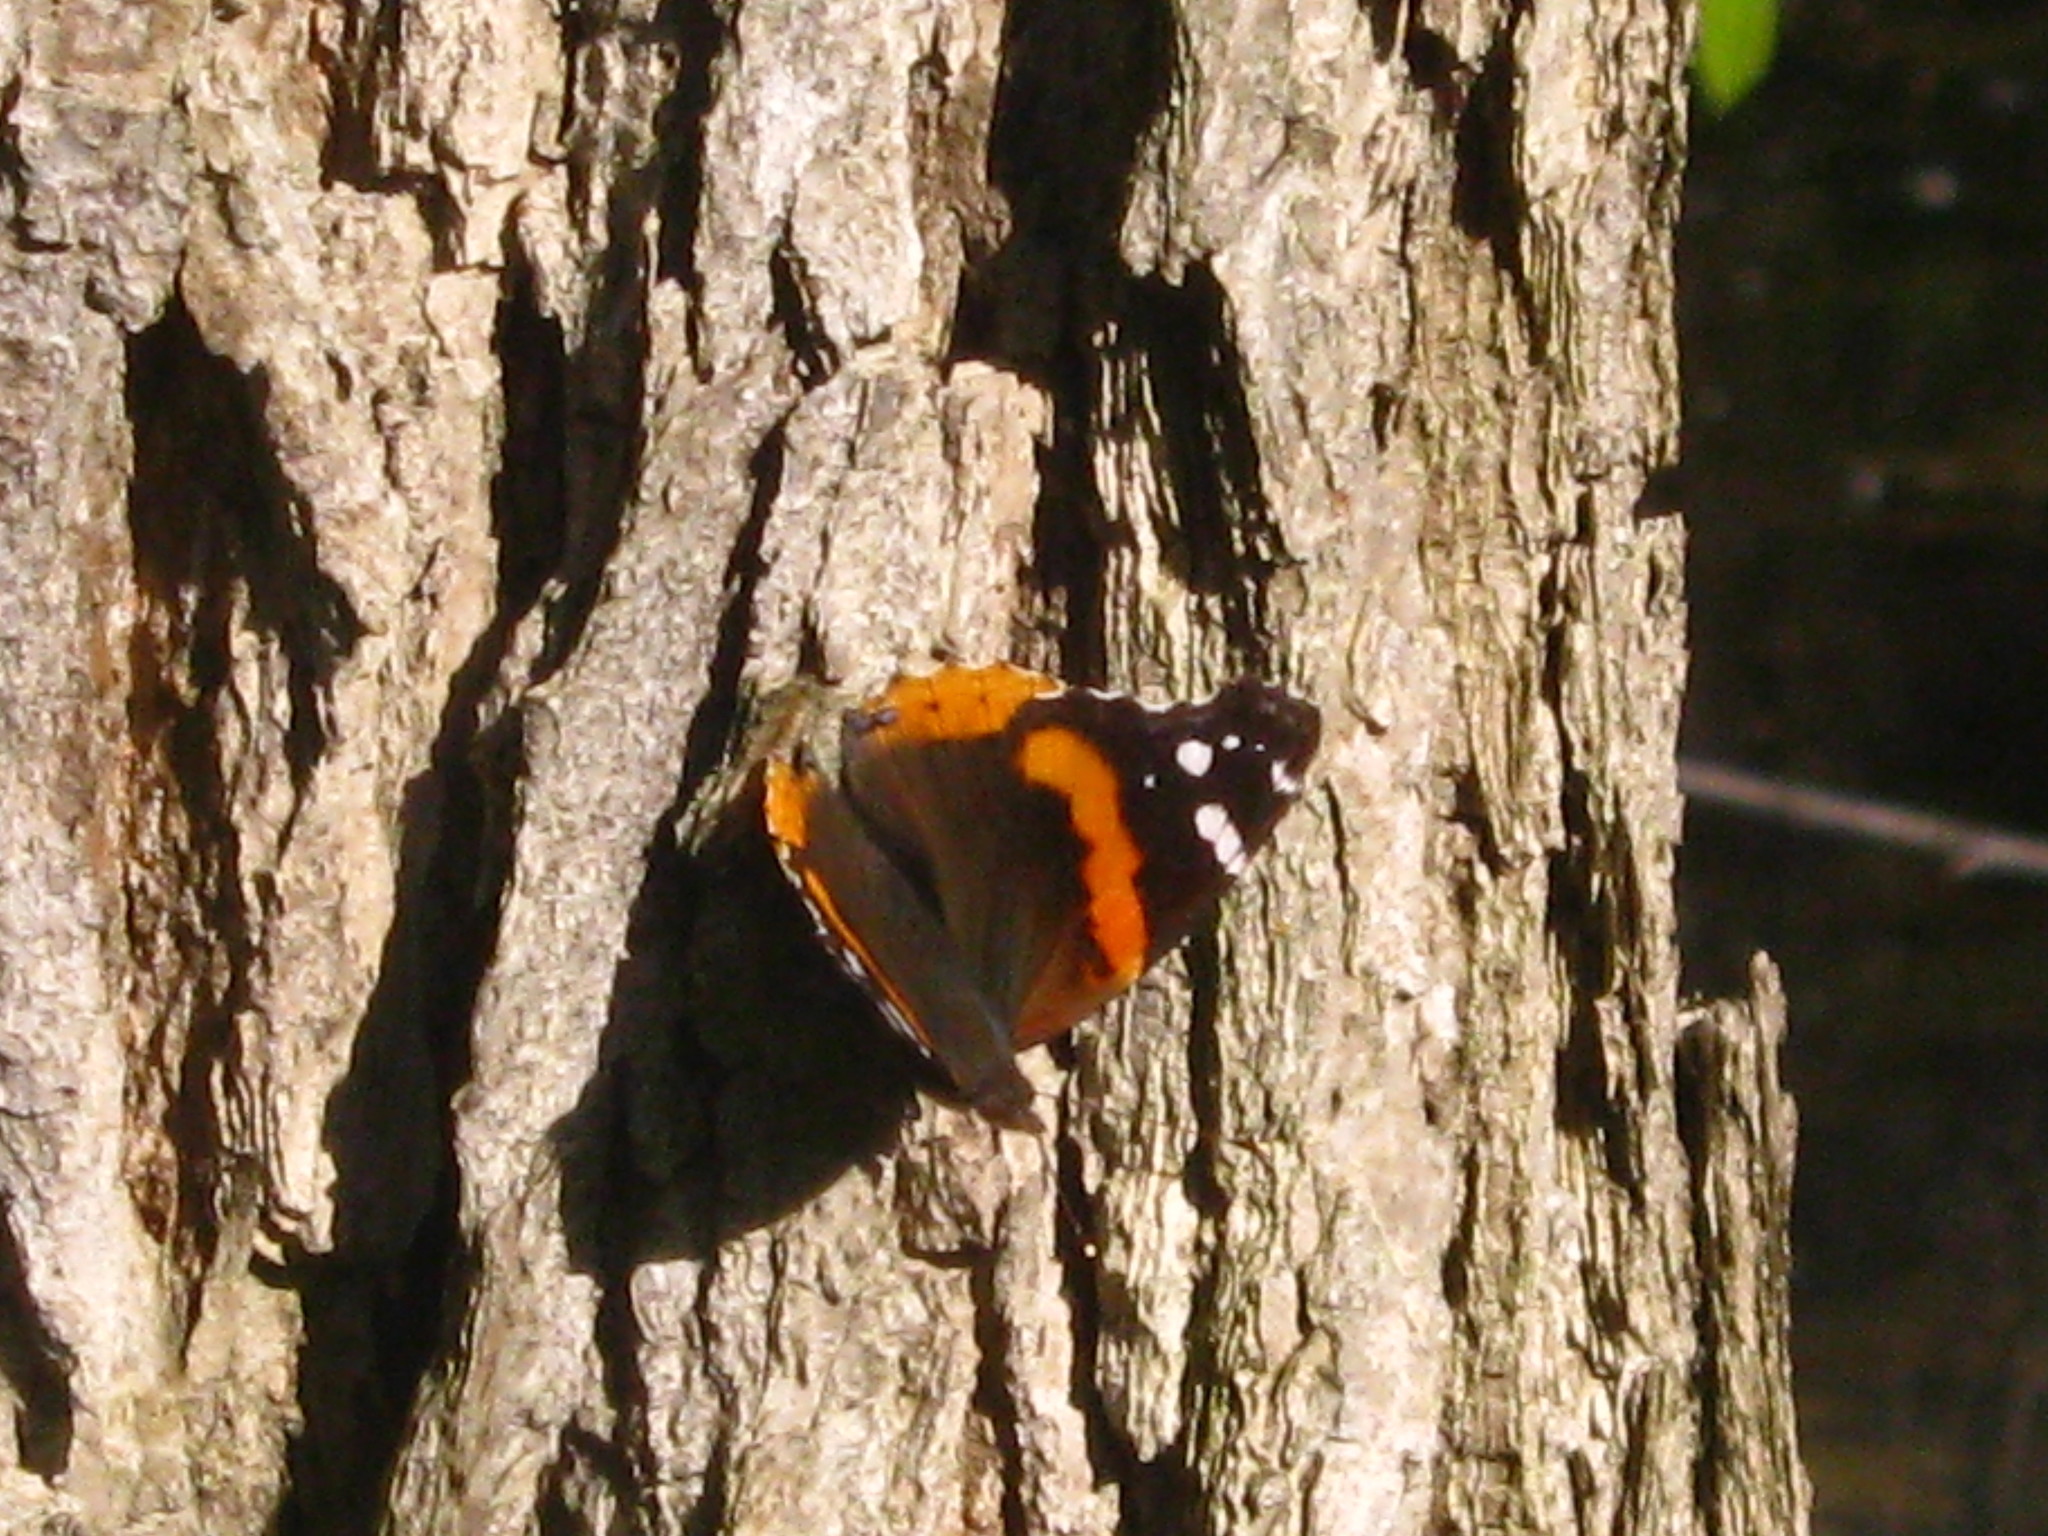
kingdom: Animalia
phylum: Arthropoda
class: Insecta
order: Lepidoptera
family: Nymphalidae
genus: Vanessa
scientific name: Vanessa atalanta
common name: Red admiral
